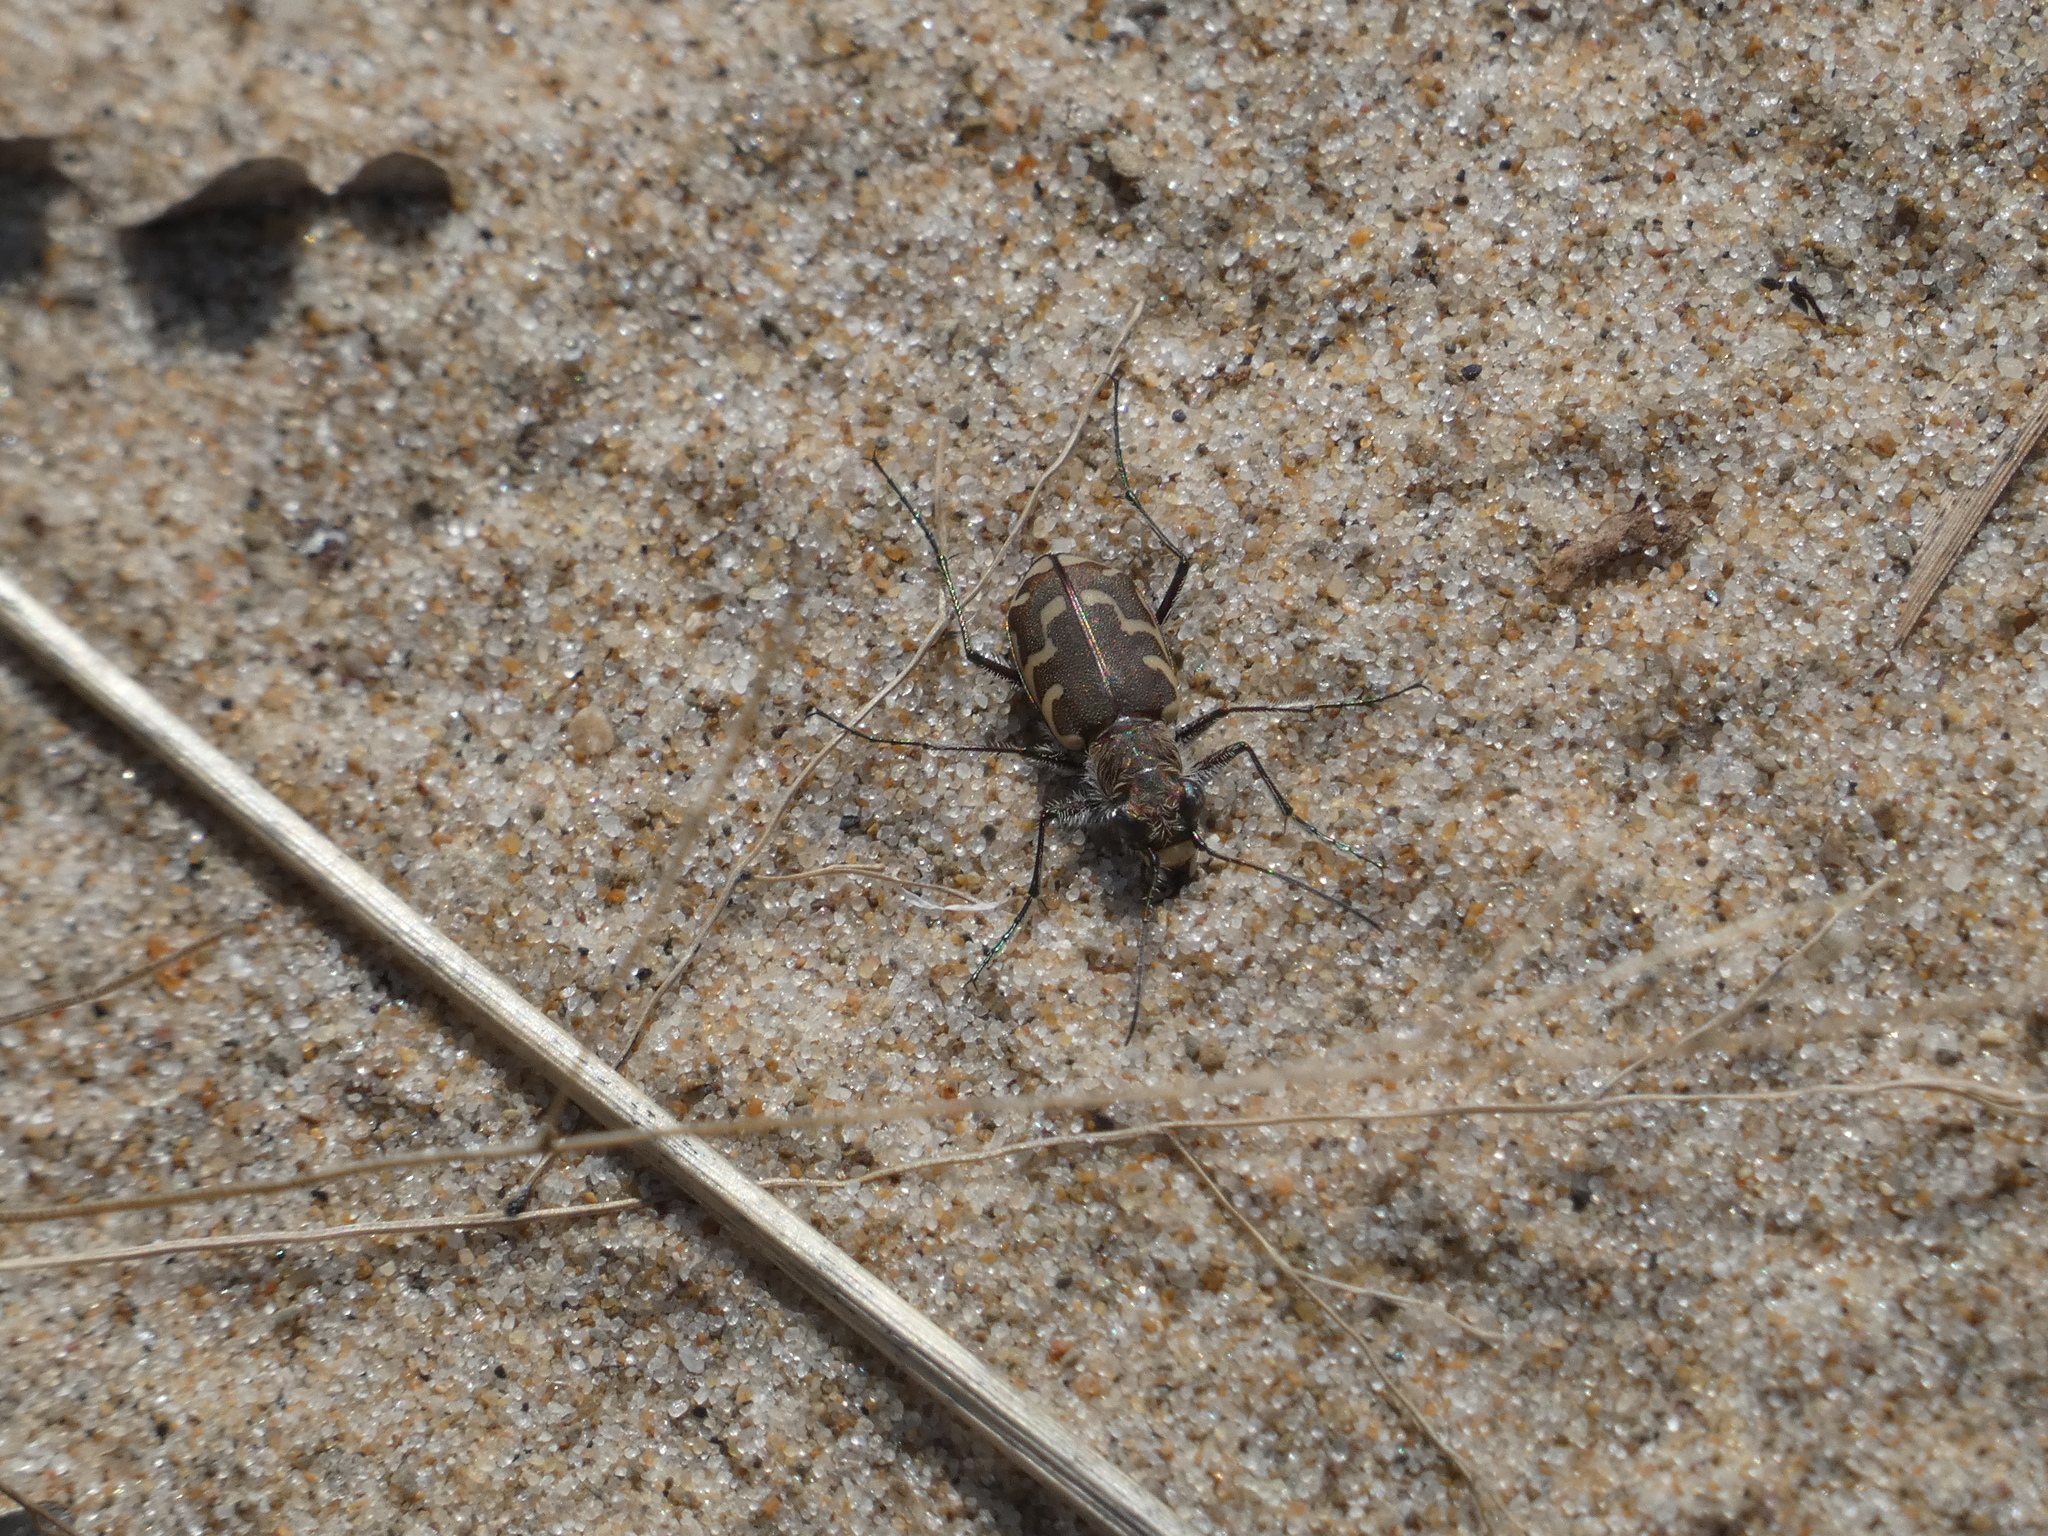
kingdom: Animalia
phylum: Arthropoda
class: Insecta
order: Coleoptera
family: Carabidae
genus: Cicindela
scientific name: Cicindela repanda
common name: Bronzed tiger beetle
